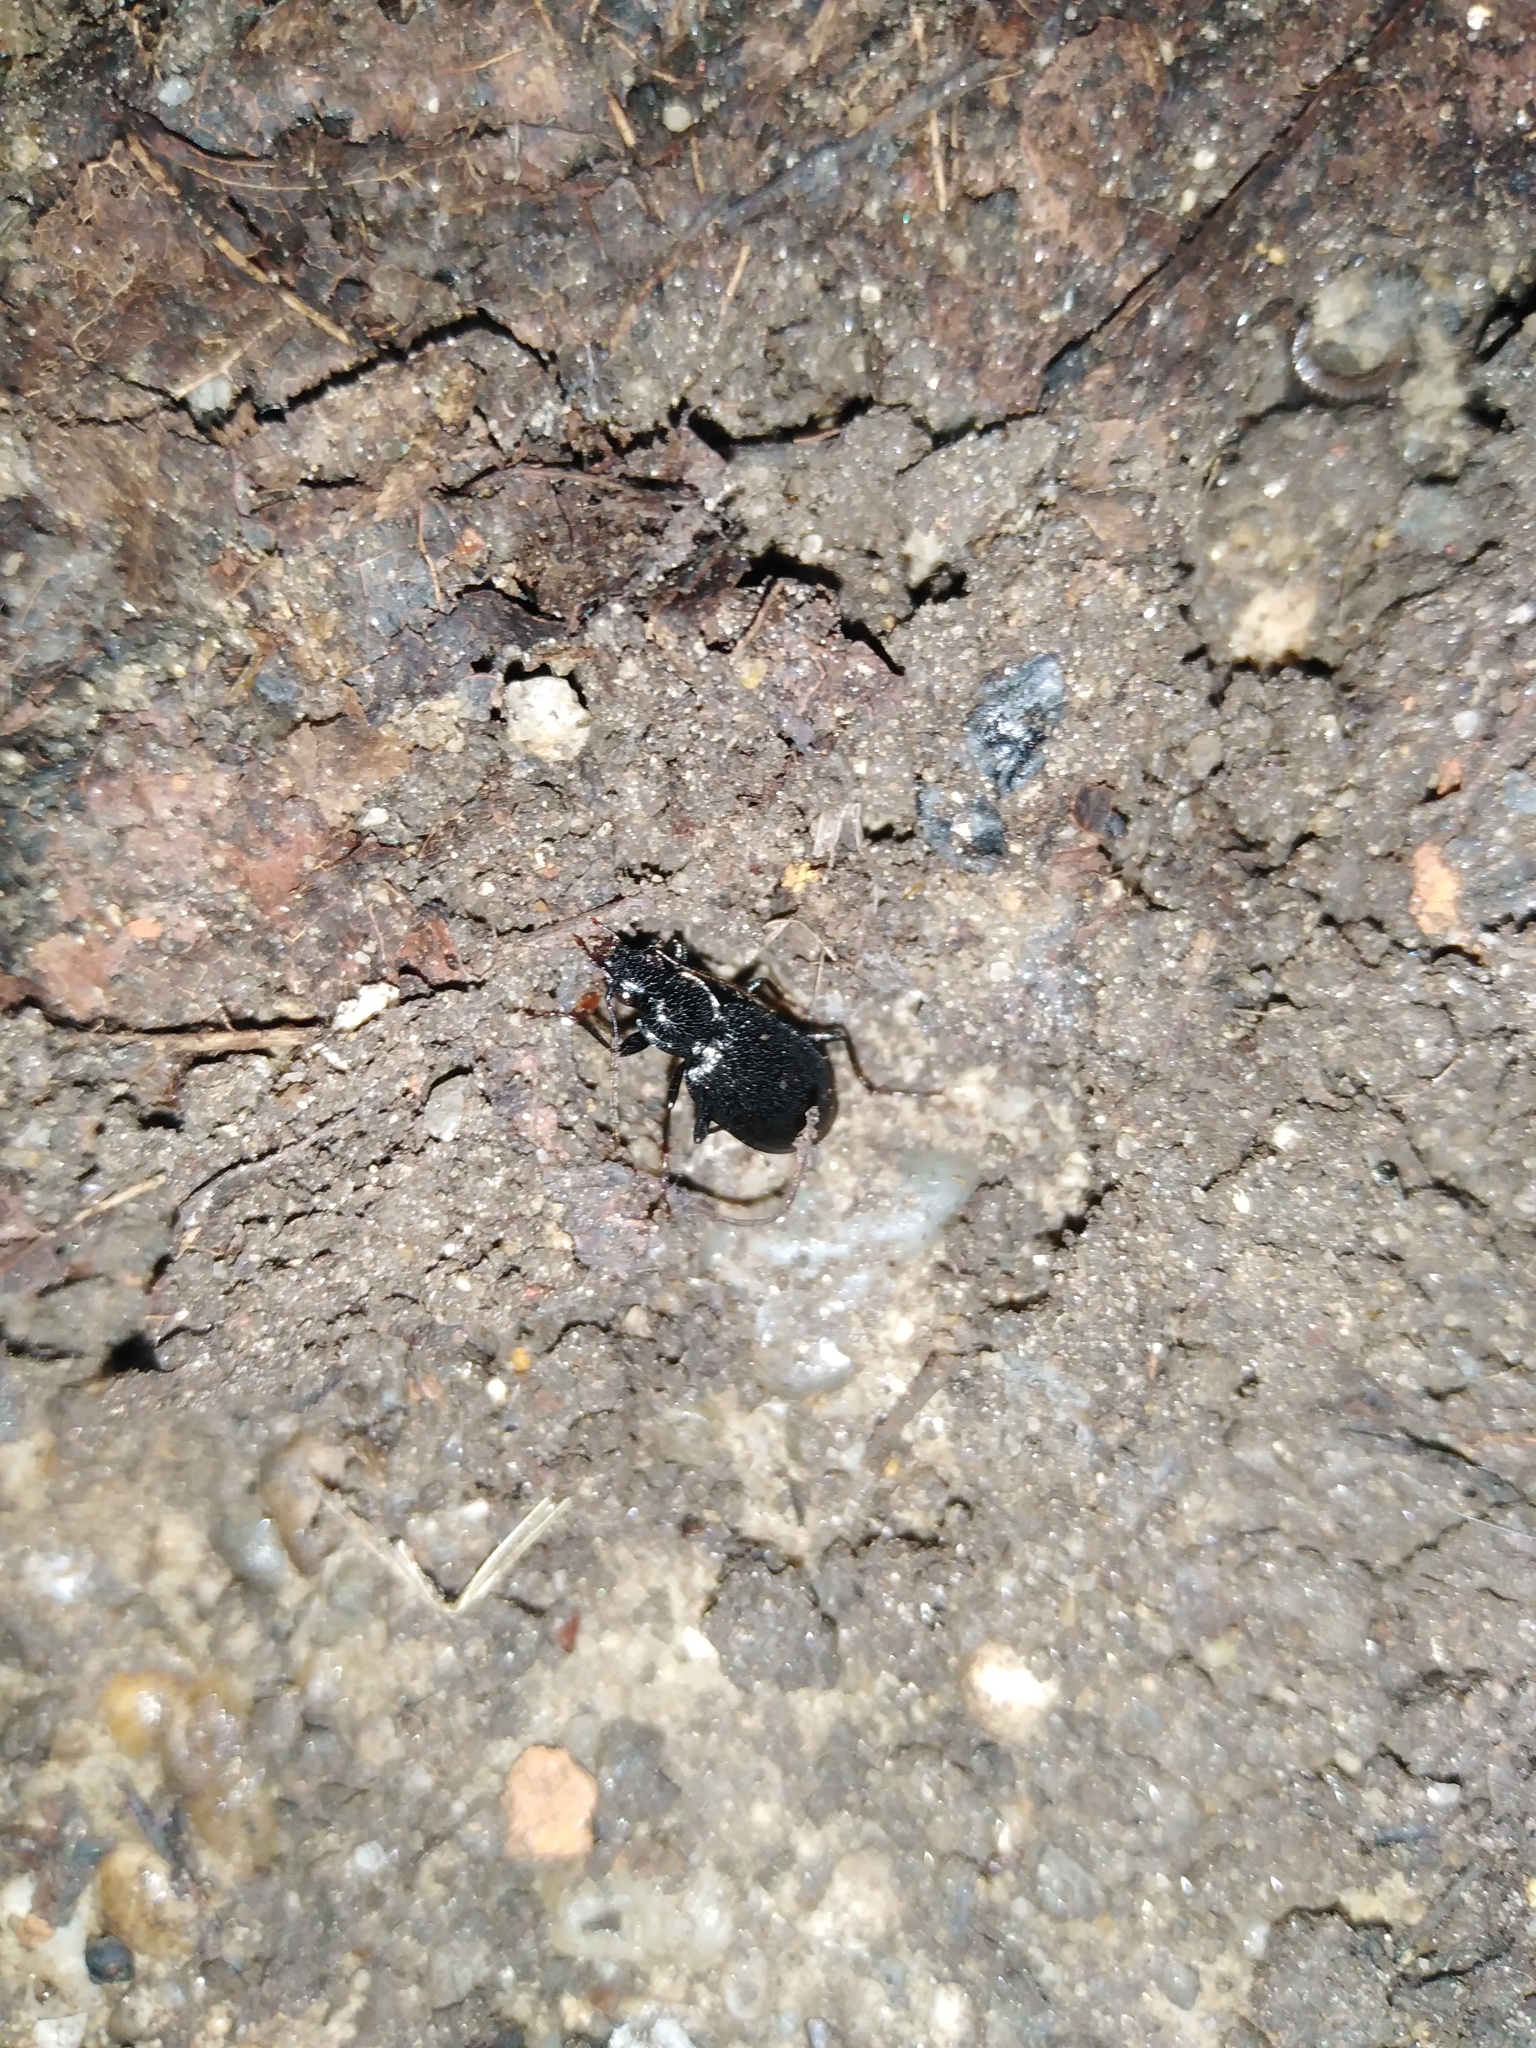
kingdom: Animalia
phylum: Arthropoda
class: Insecta
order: Coleoptera
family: Carabidae
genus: Platynus
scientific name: Platynus assimilis
